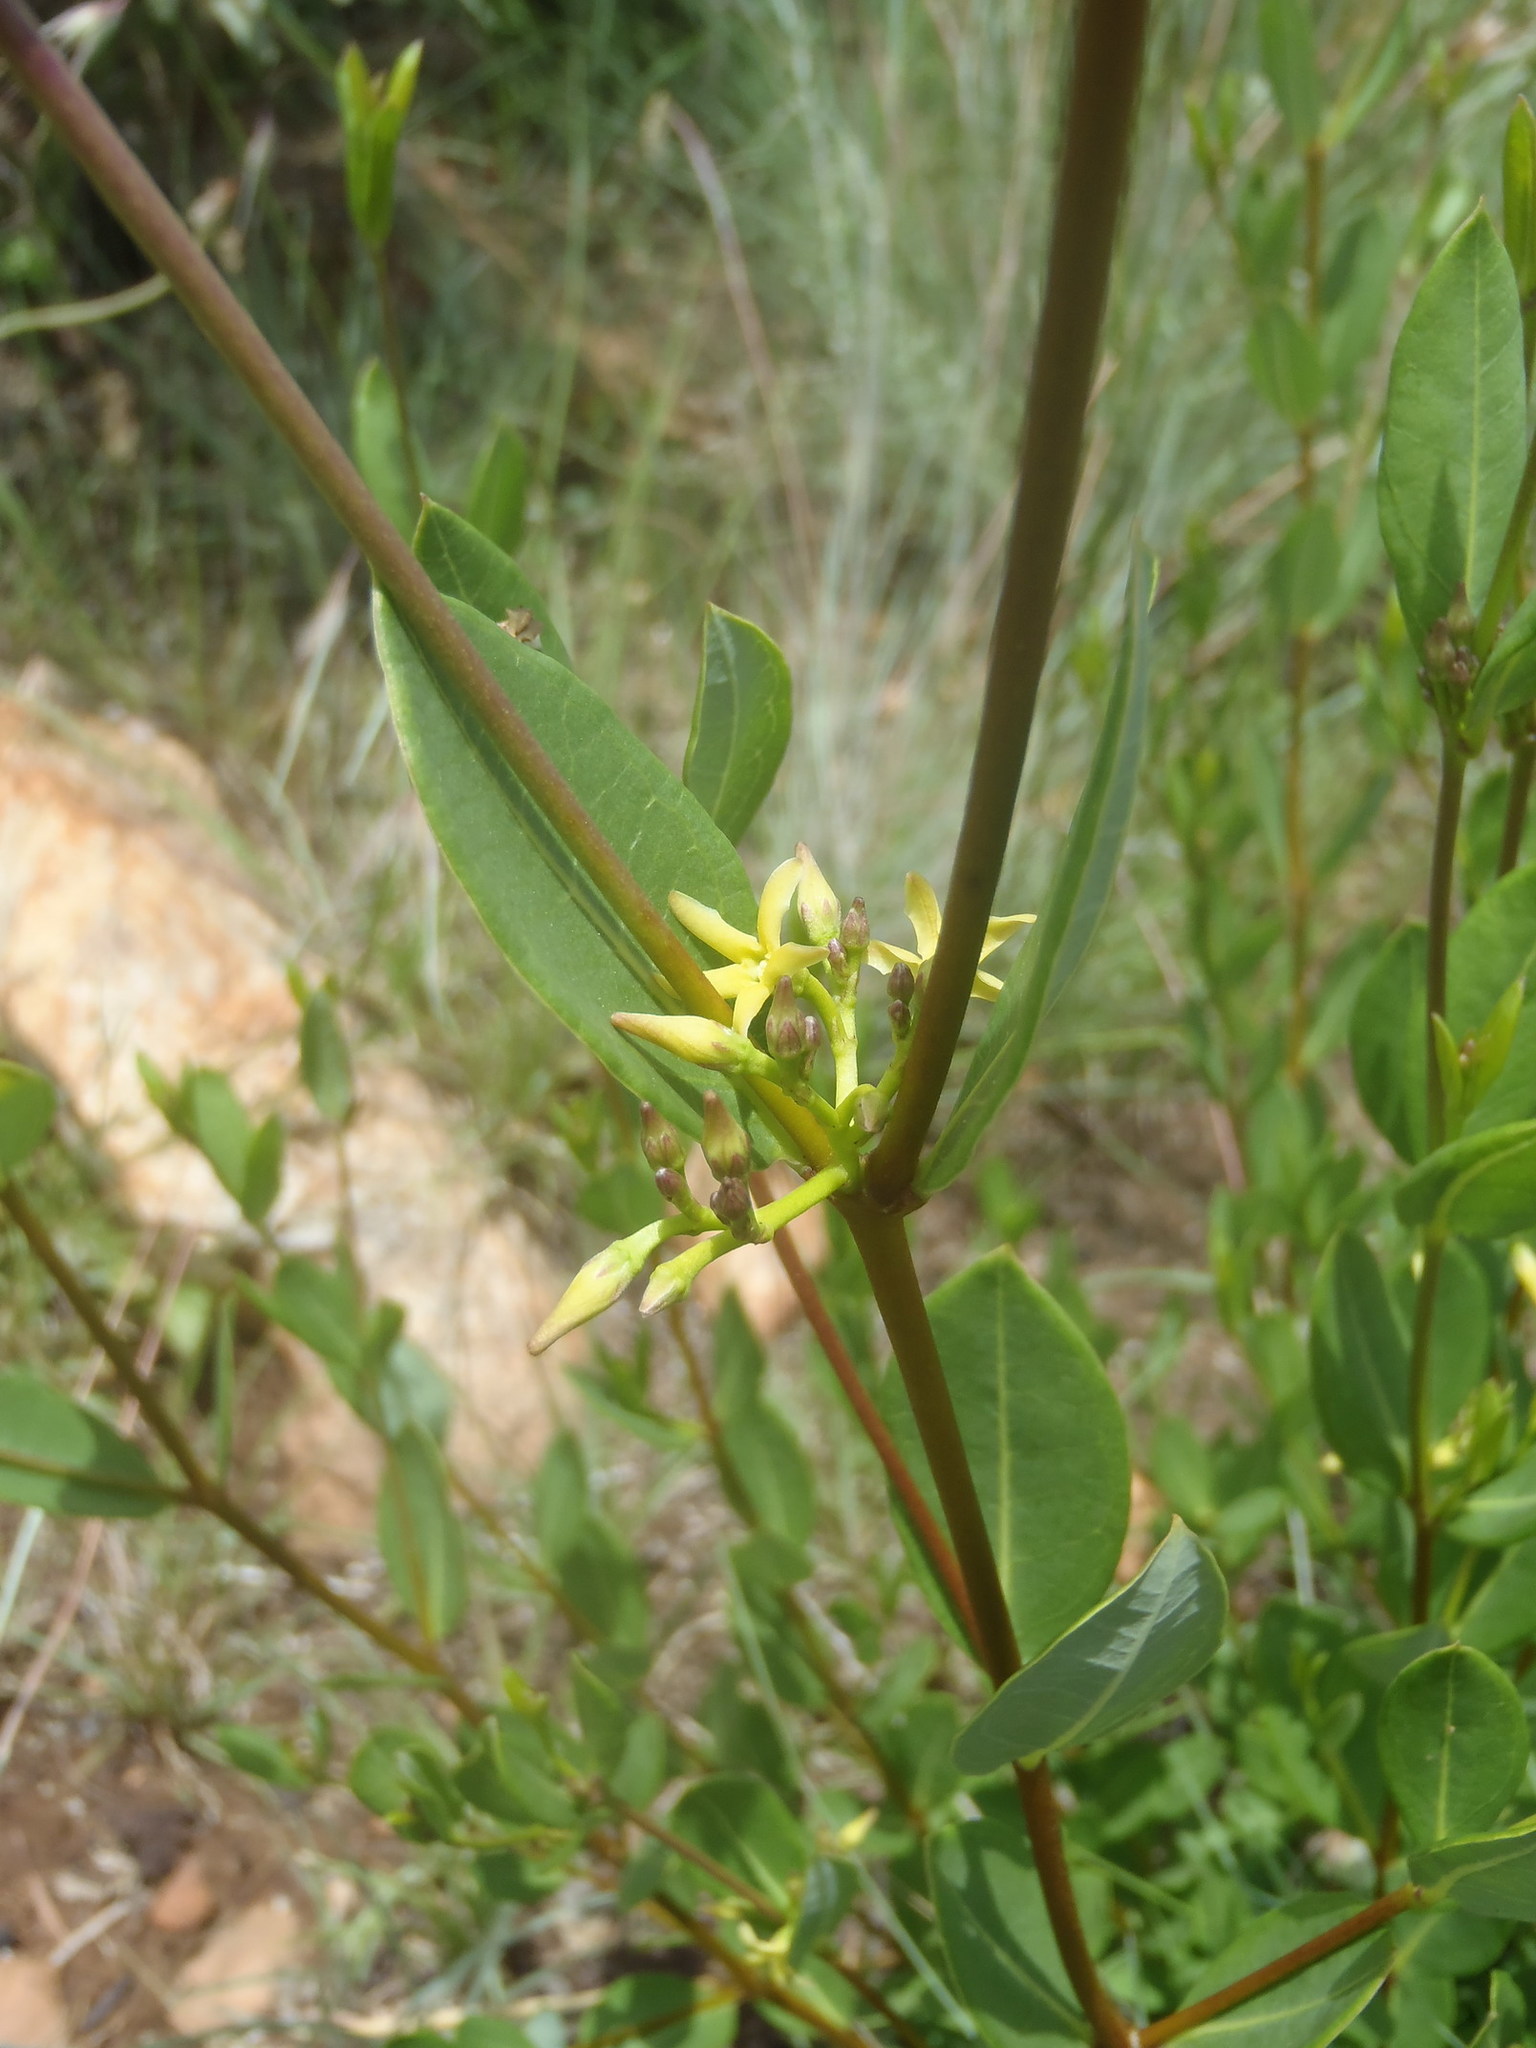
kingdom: Plantae
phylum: Tracheophyta
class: Magnoliopsida
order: Gentianales
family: Apocynaceae
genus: Cryptolepis
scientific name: Cryptolepis oblongifolia
